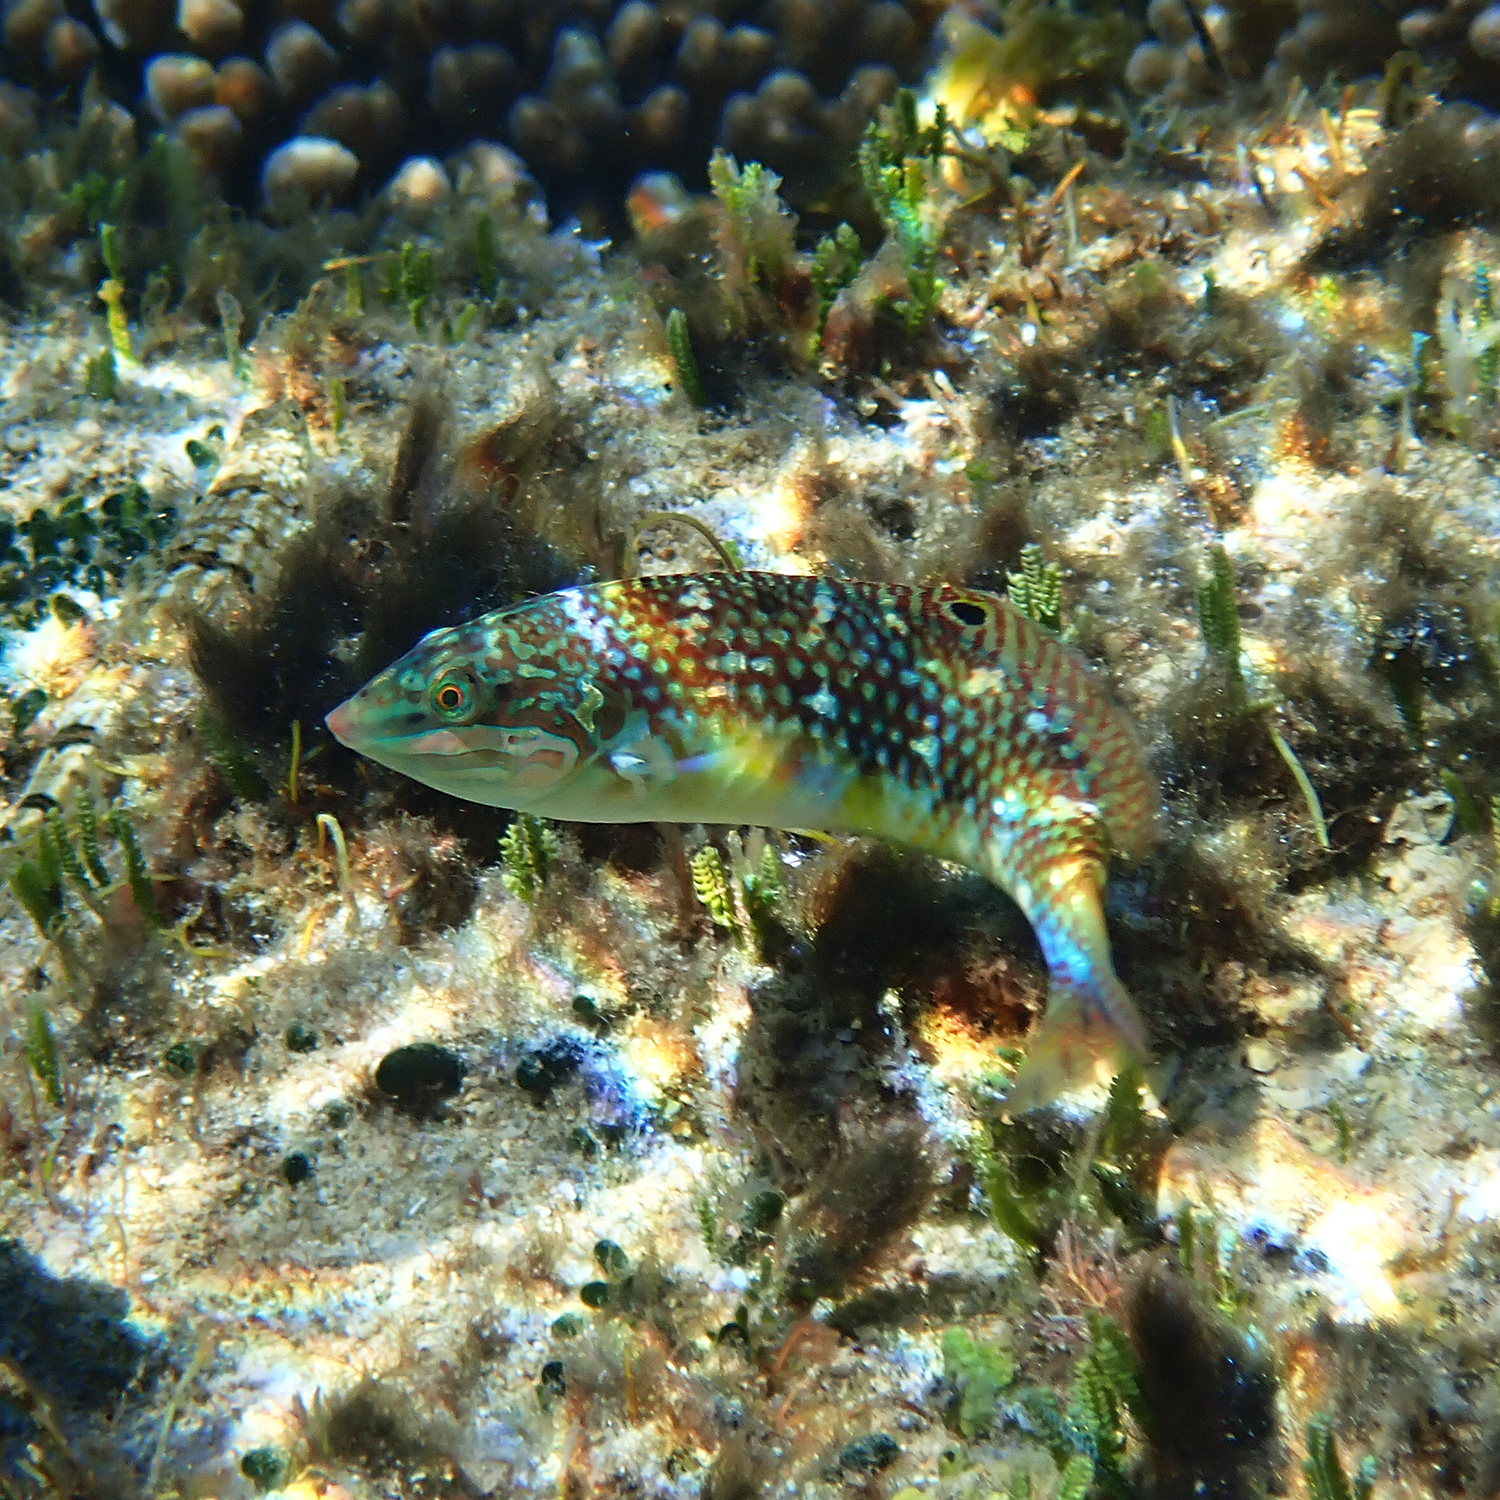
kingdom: Animalia
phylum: Chordata
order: Perciformes
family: Labridae
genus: Halichoeres
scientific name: Halichoeres margaritaceus
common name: Pink-belly wrasse
